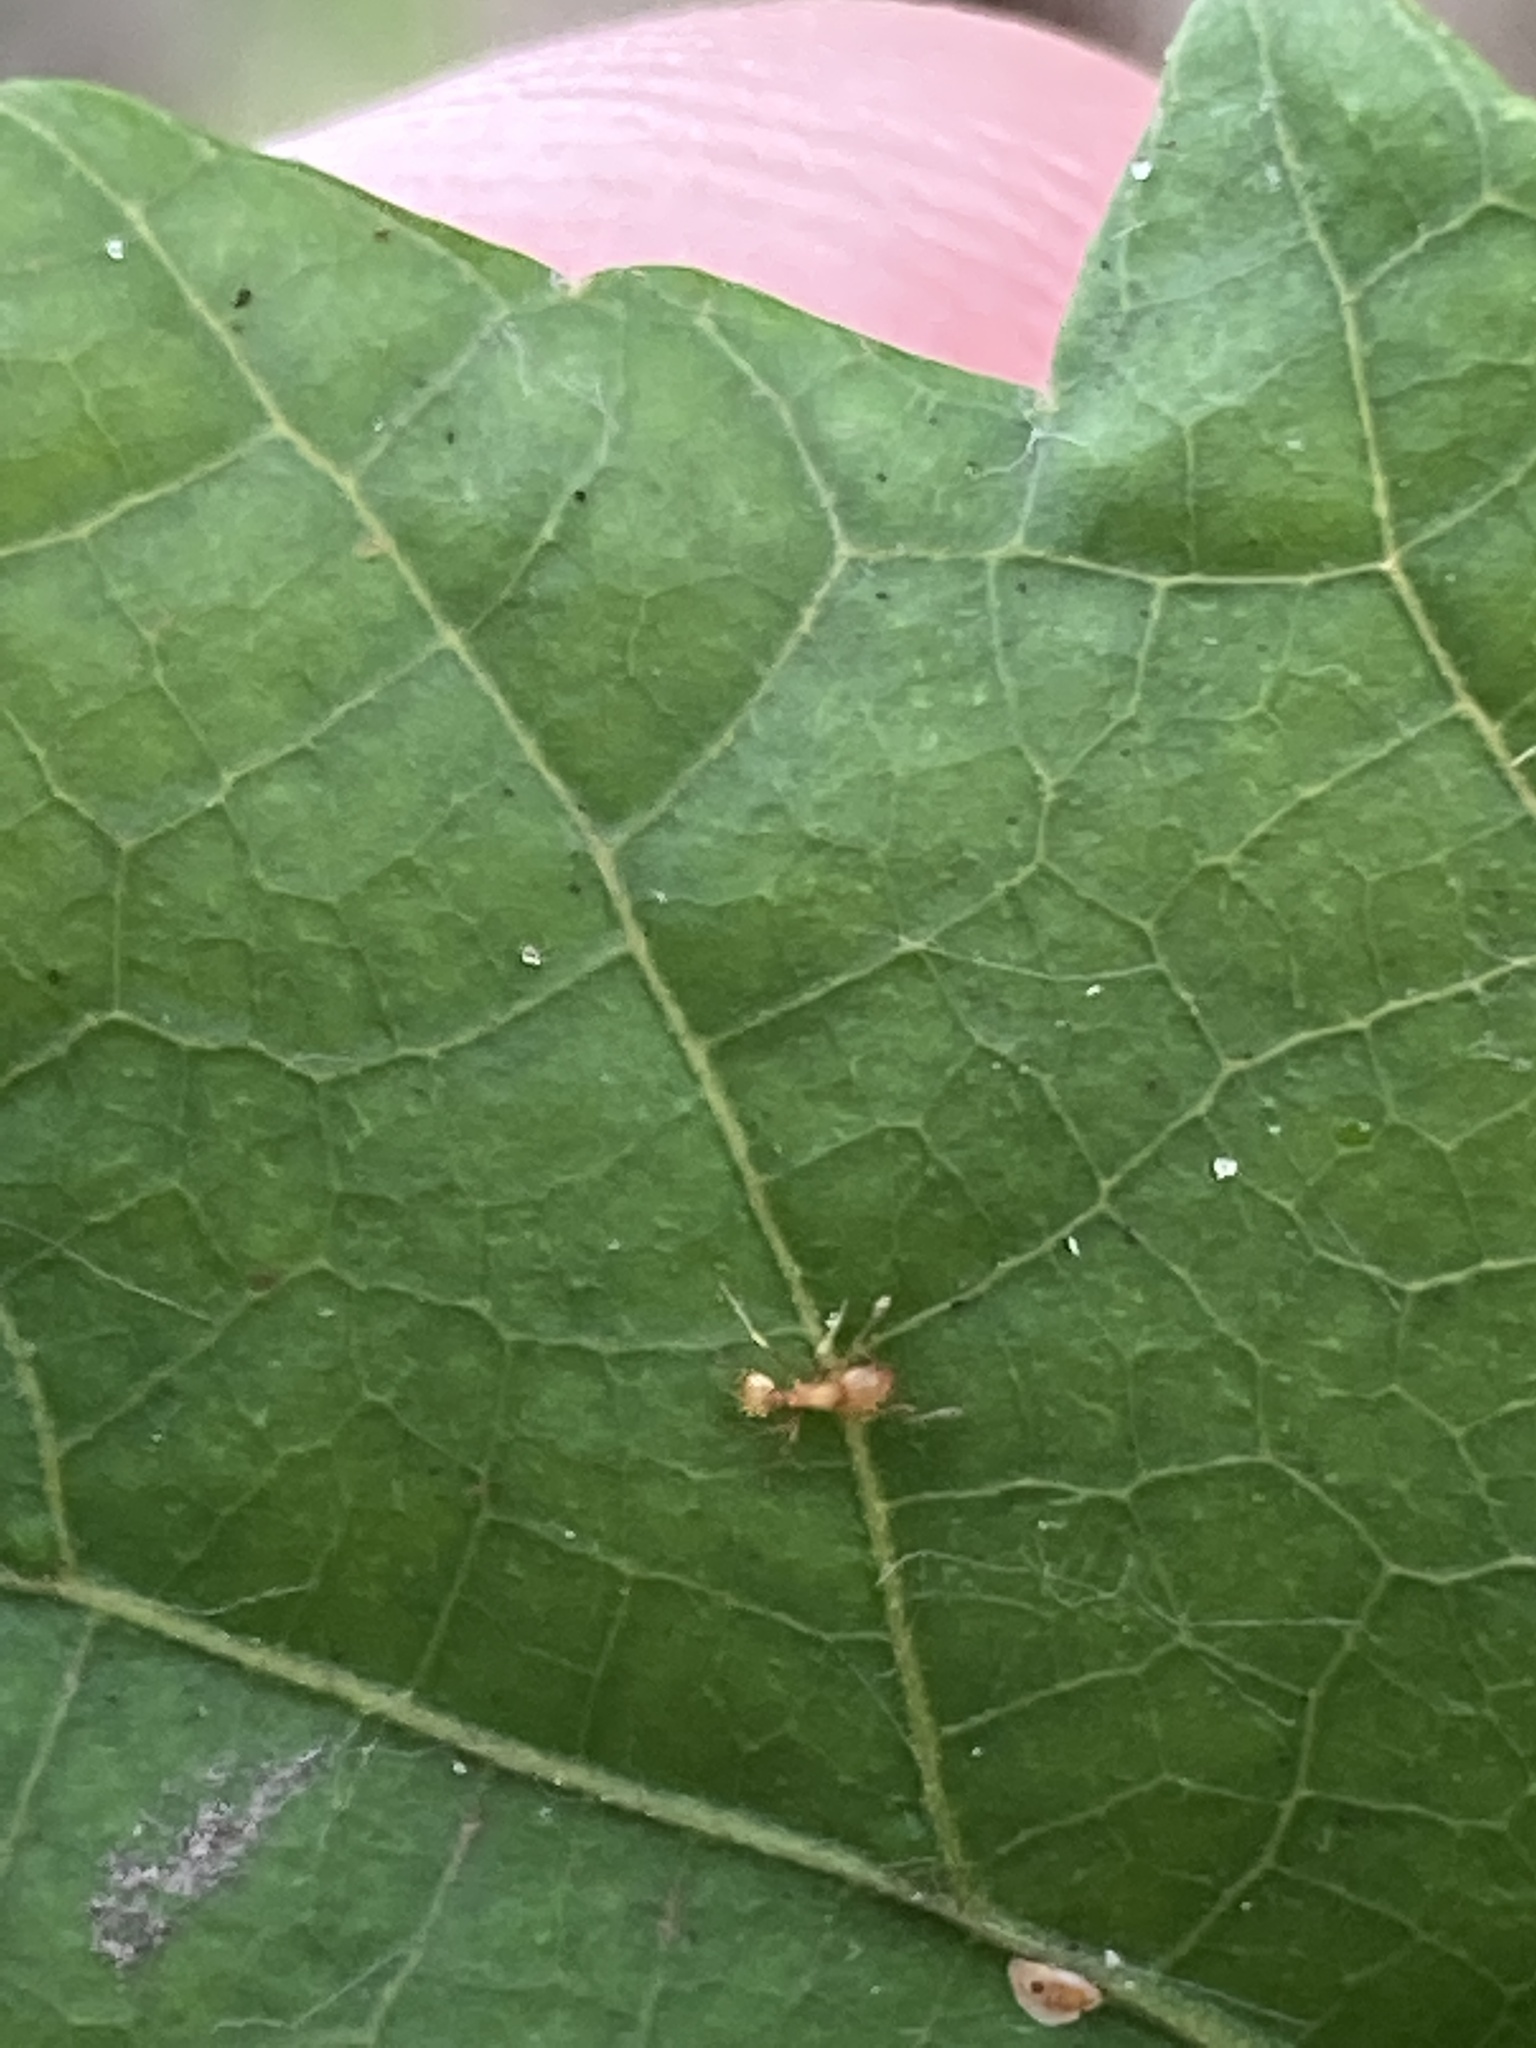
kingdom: Animalia
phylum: Arthropoda
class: Insecta
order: Hymenoptera
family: Formicidae
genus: Wasmannia
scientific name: Wasmannia auropunctata
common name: Little fire ant
